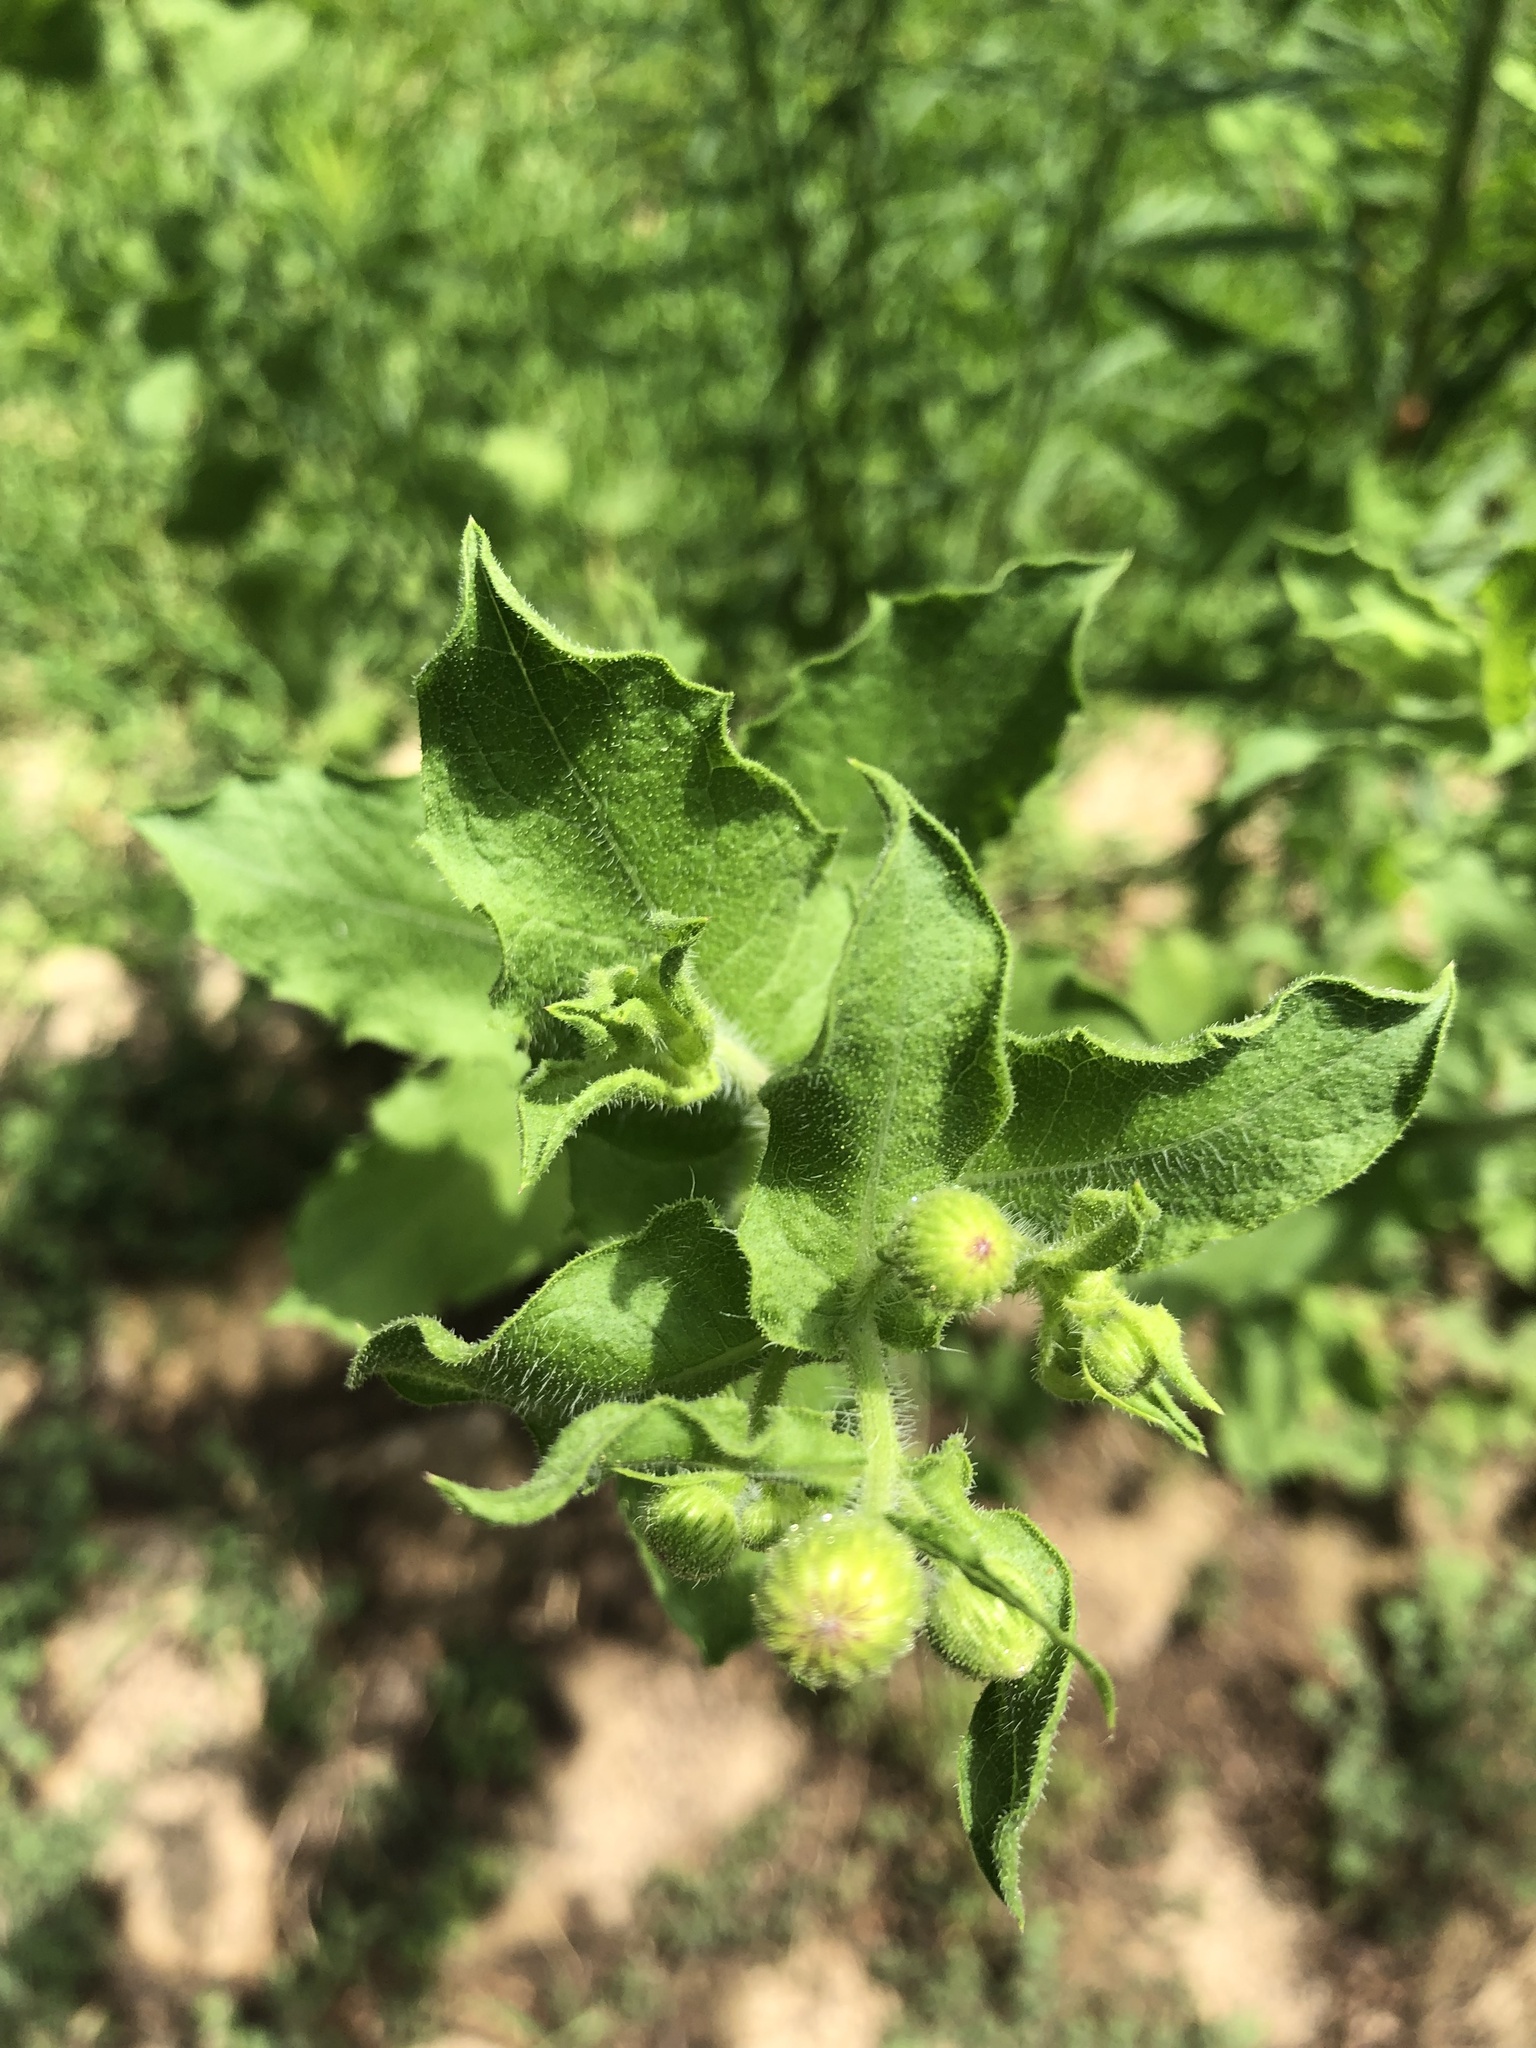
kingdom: Plantae
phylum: Tracheophyta
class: Magnoliopsida
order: Asterales
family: Asteraceae
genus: Heterotheca
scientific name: Heterotheca subaxillaris
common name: Camphorweed
